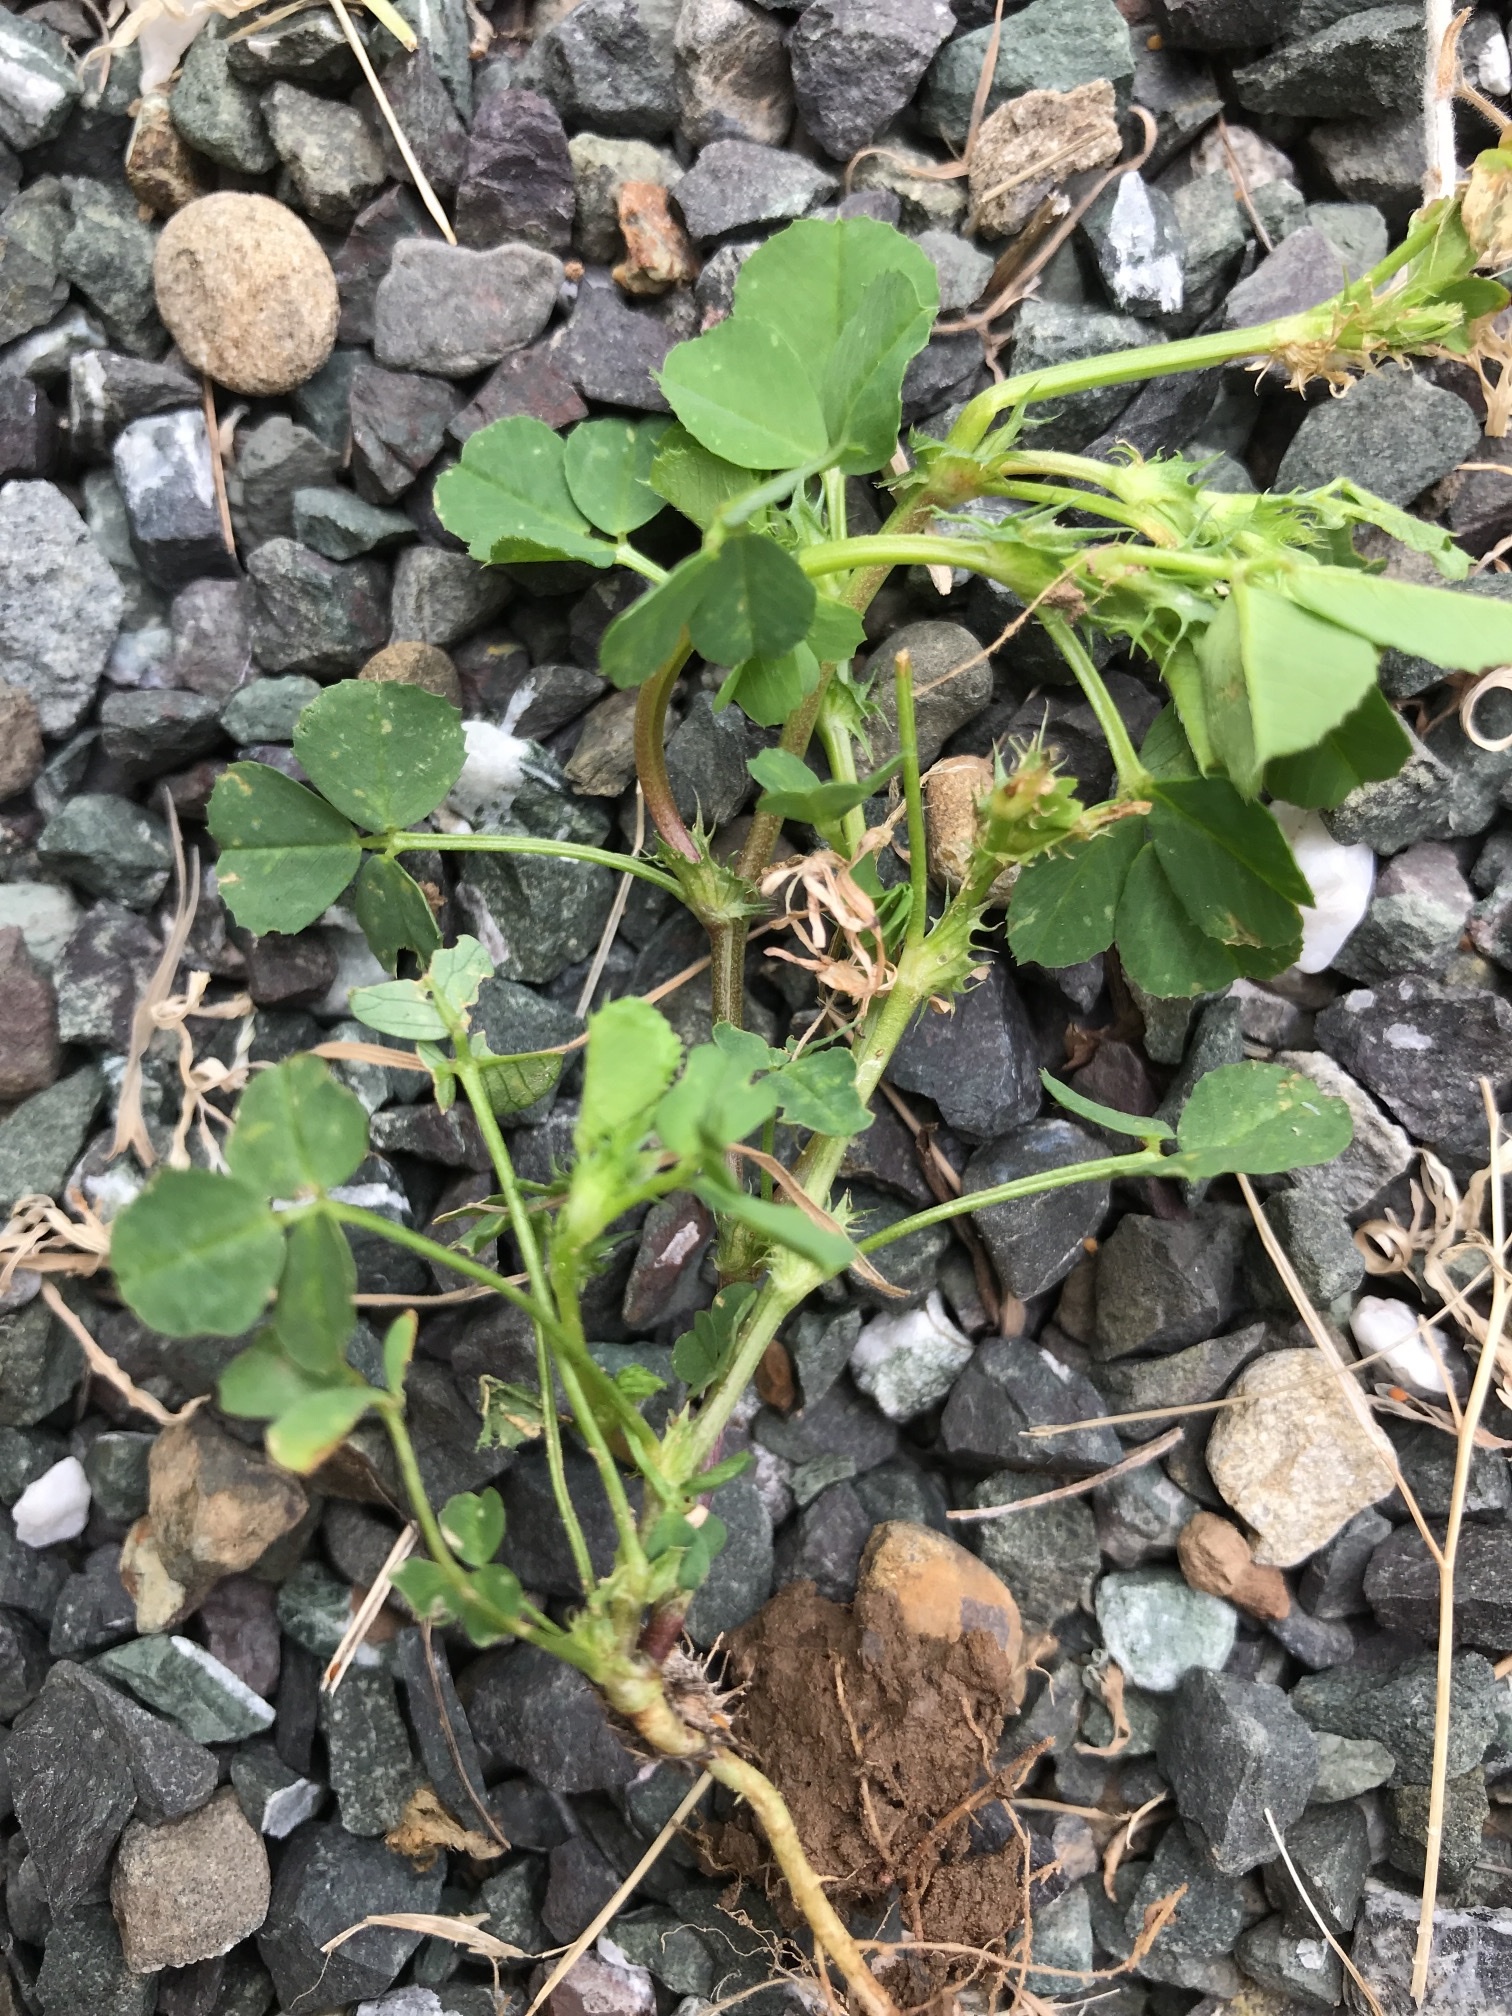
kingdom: Plantae
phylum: Tracheophyta
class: Magnoliopsida
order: Fabales
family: Fabaceae
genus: Medicago
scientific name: Medicago polymorpha
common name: Burclover
